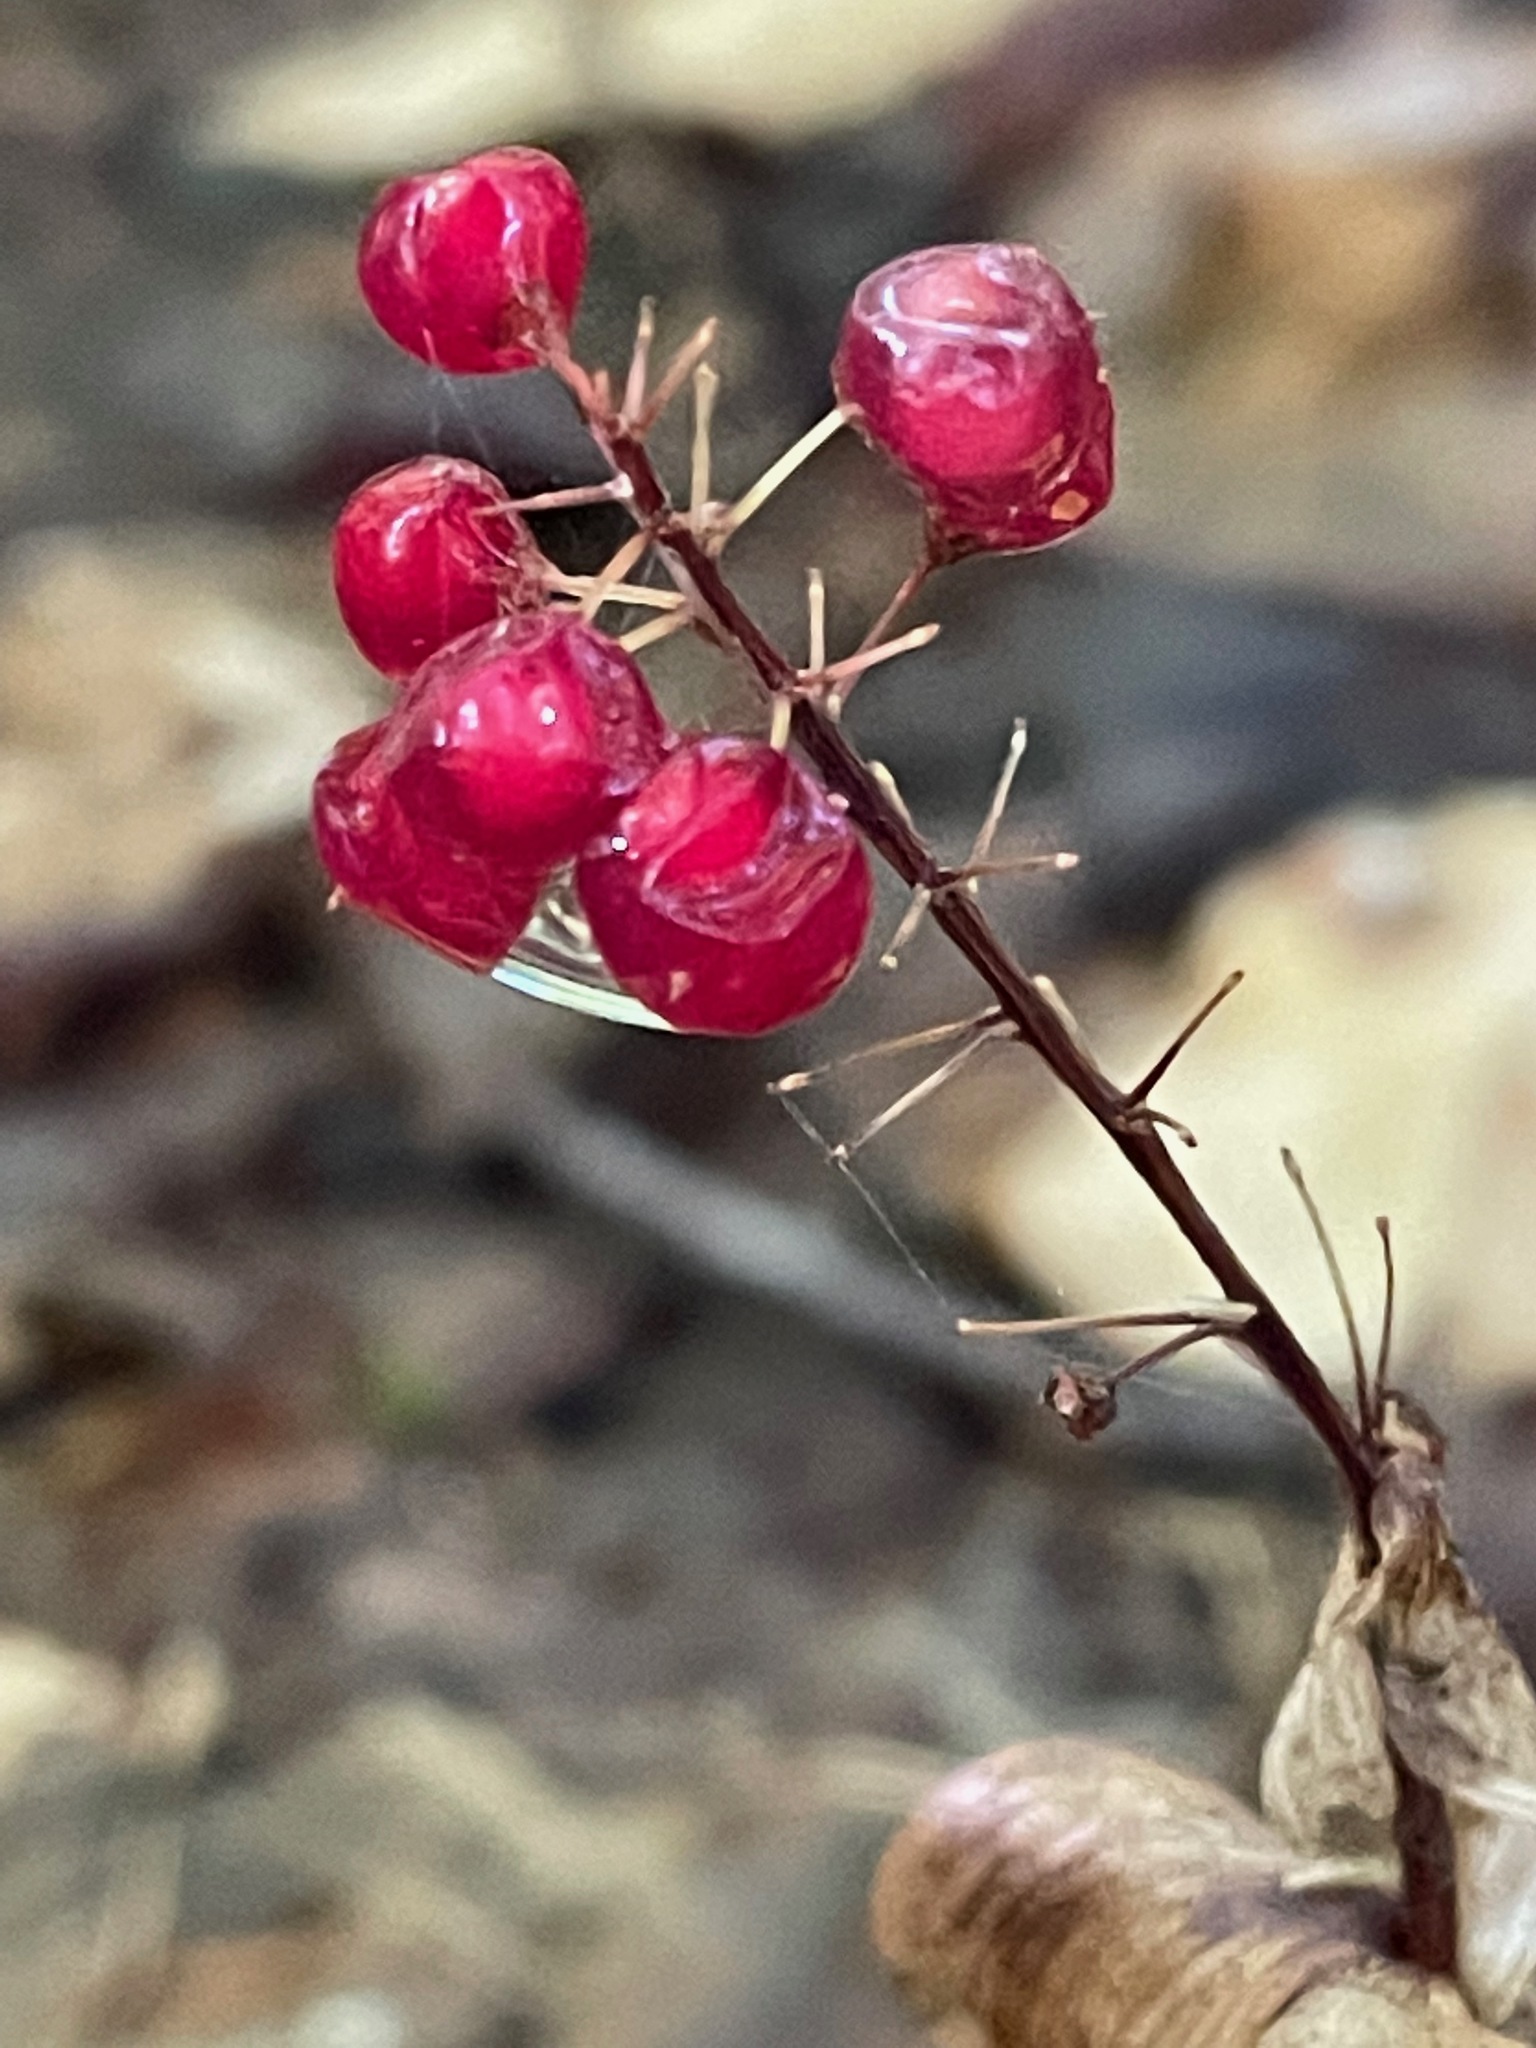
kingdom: Plantae
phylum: Tracheophyta
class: Liliopsida
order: Asparagales
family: Asparagaceae
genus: Maianthemum
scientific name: Maianthemum canadense
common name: False lily-of-the-valley
